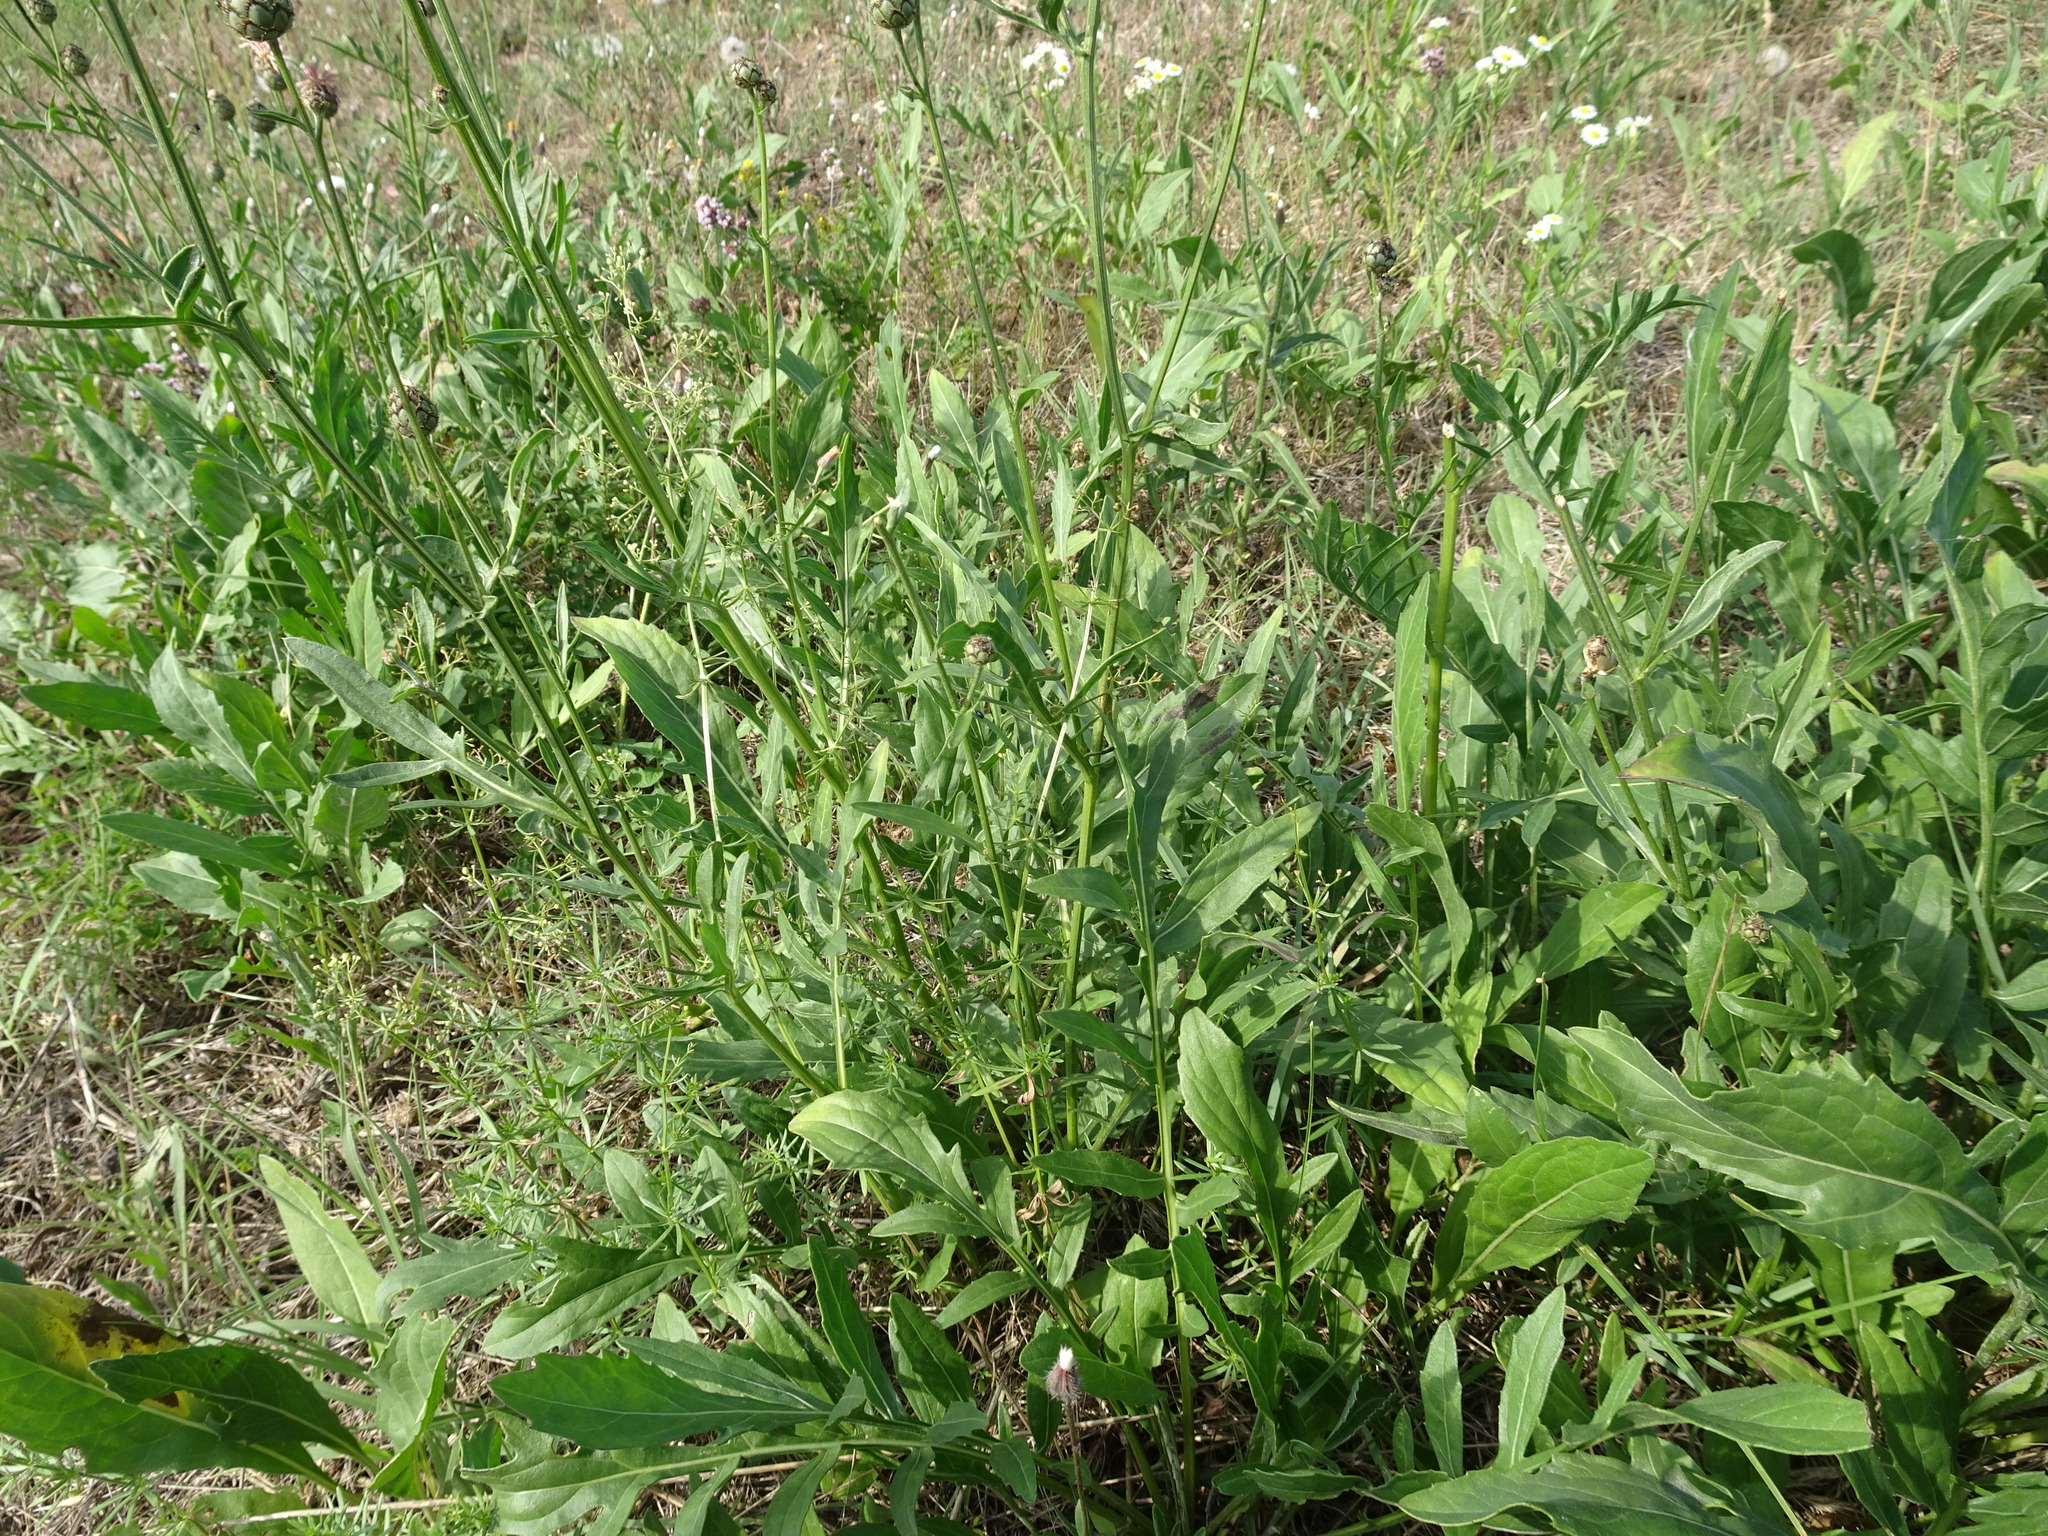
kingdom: Plantae
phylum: Tracheophyta
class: Magnoliopsida
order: Asterales
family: Asteraceae
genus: Centaurea
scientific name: Centaurea scabiosa
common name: Greater knapweed
